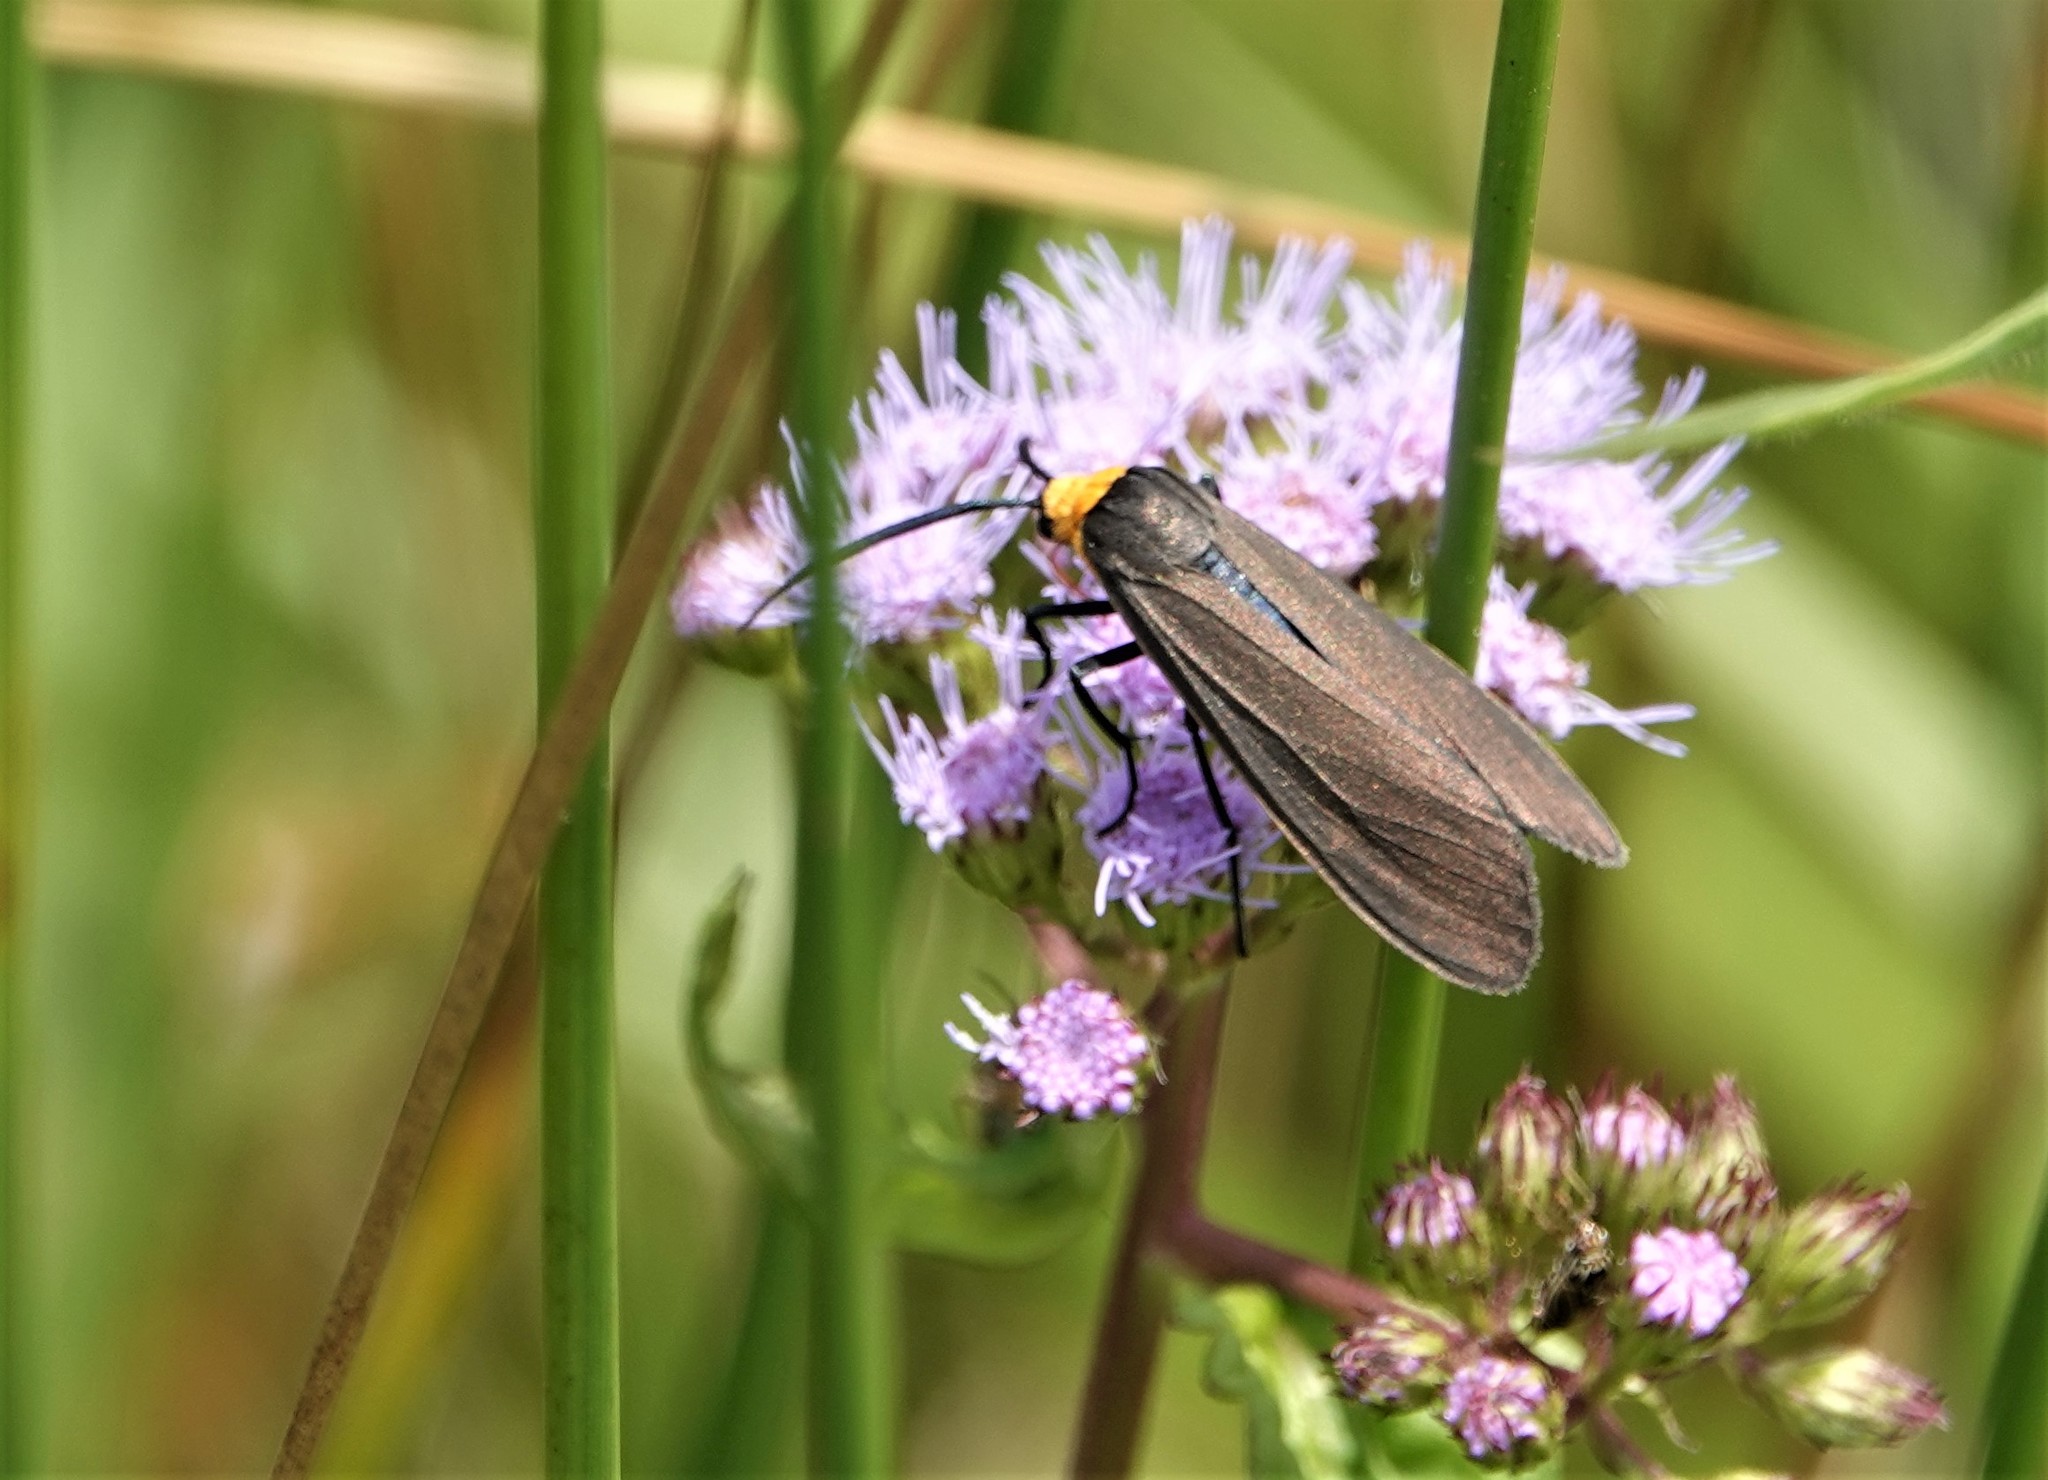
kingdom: Animalia
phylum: Arthropoda
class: Insecta
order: Lepidoptera
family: Erebidae
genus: Cisseps
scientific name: Cisseps fulvicollis
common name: Yellow-collared scape moth
